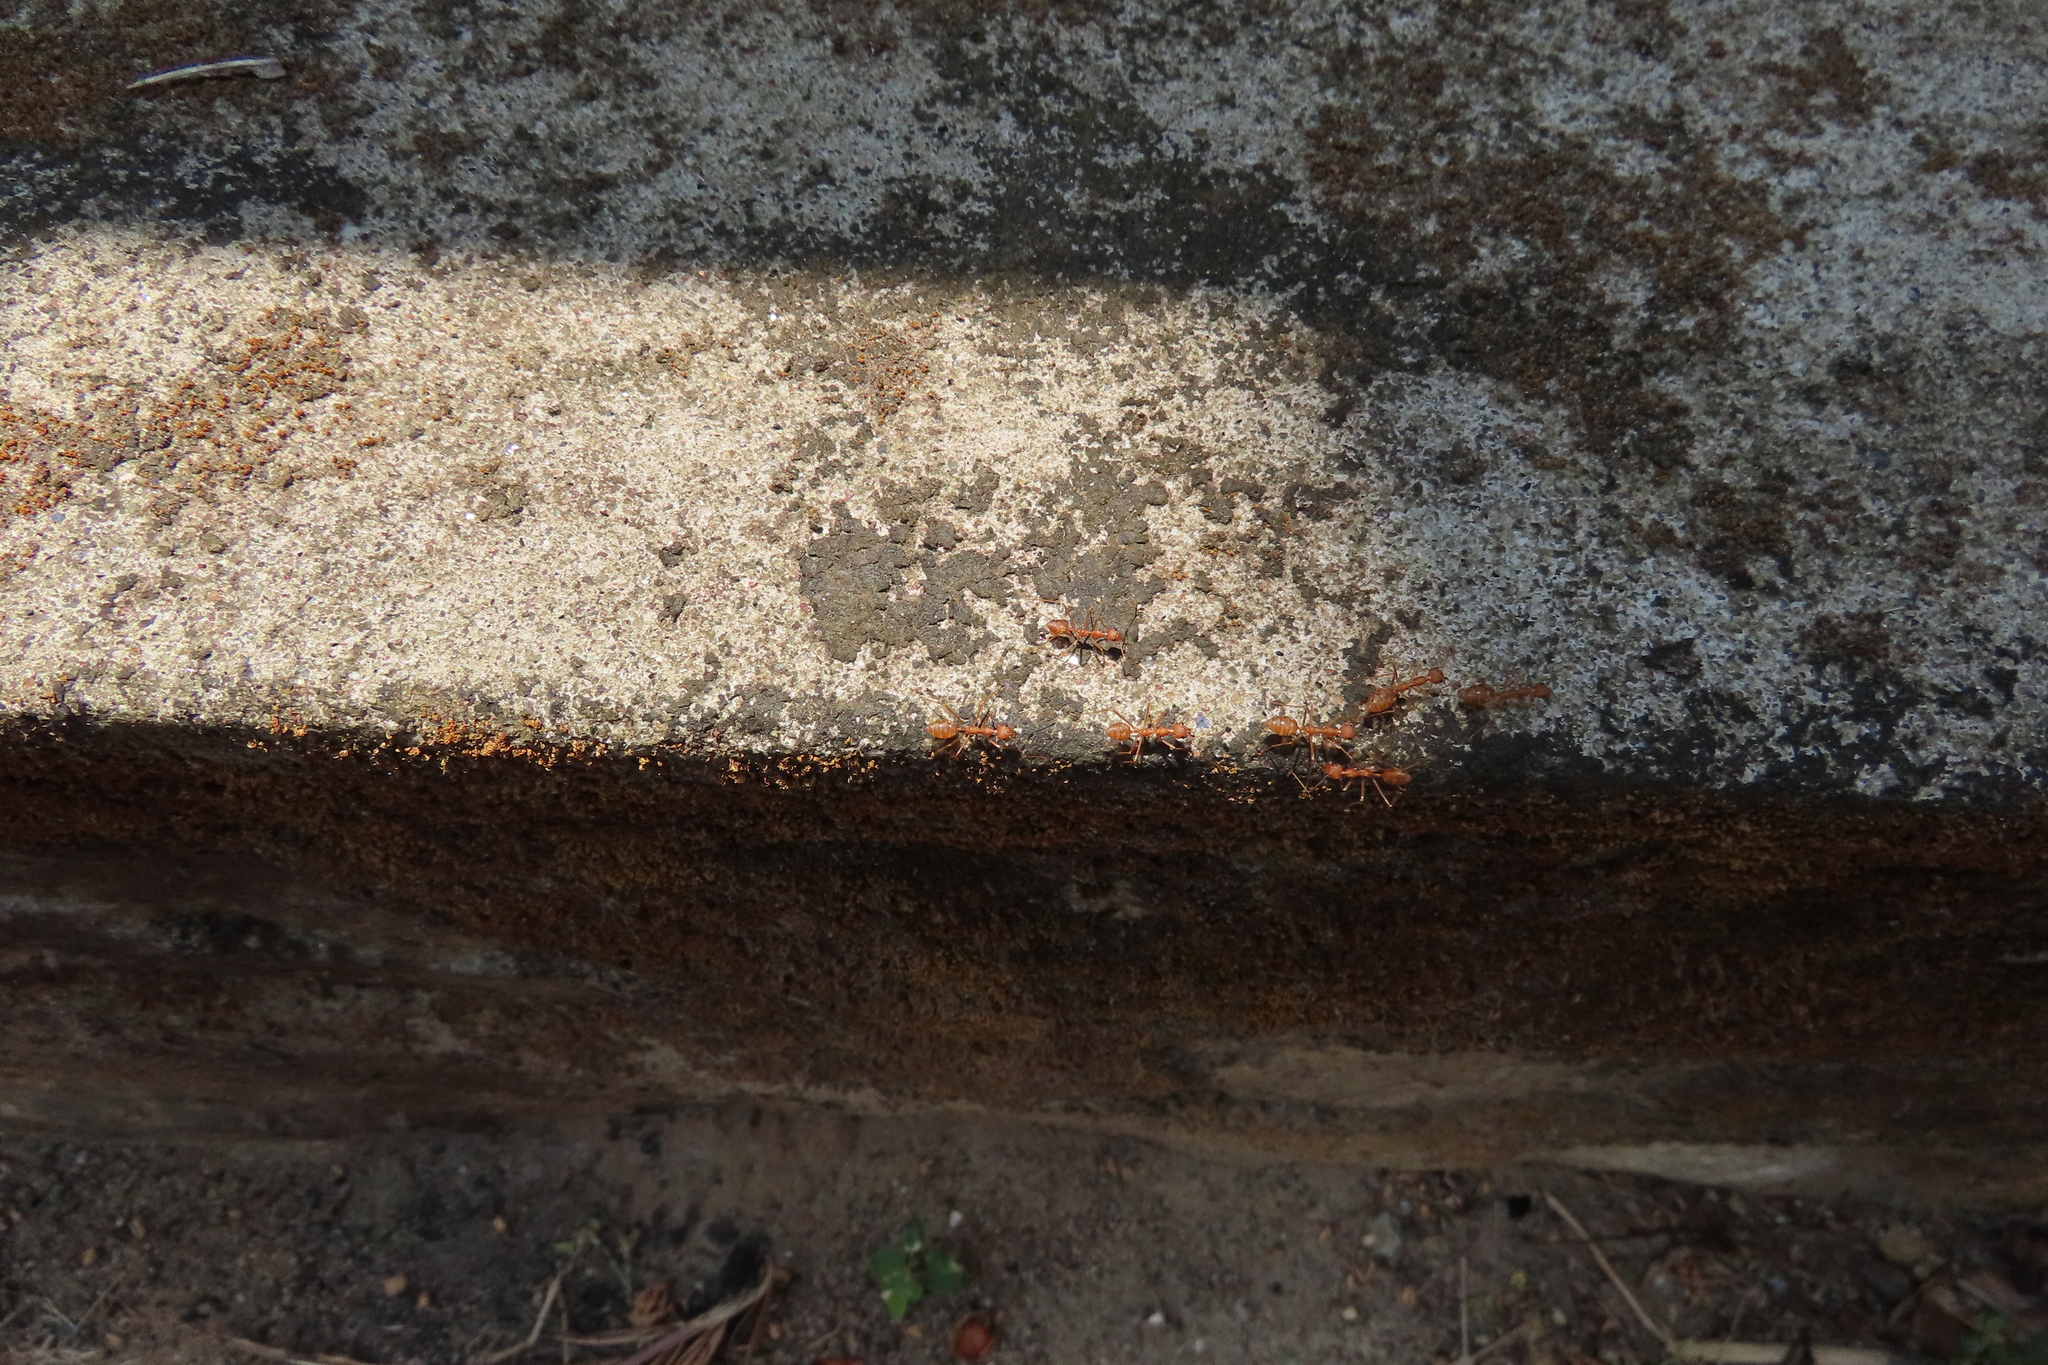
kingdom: Animalia
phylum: Arthropoda
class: Insecta
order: Hymenoptera
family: Formicidae
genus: Oecophylla
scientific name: Oecophylla smaragdina
